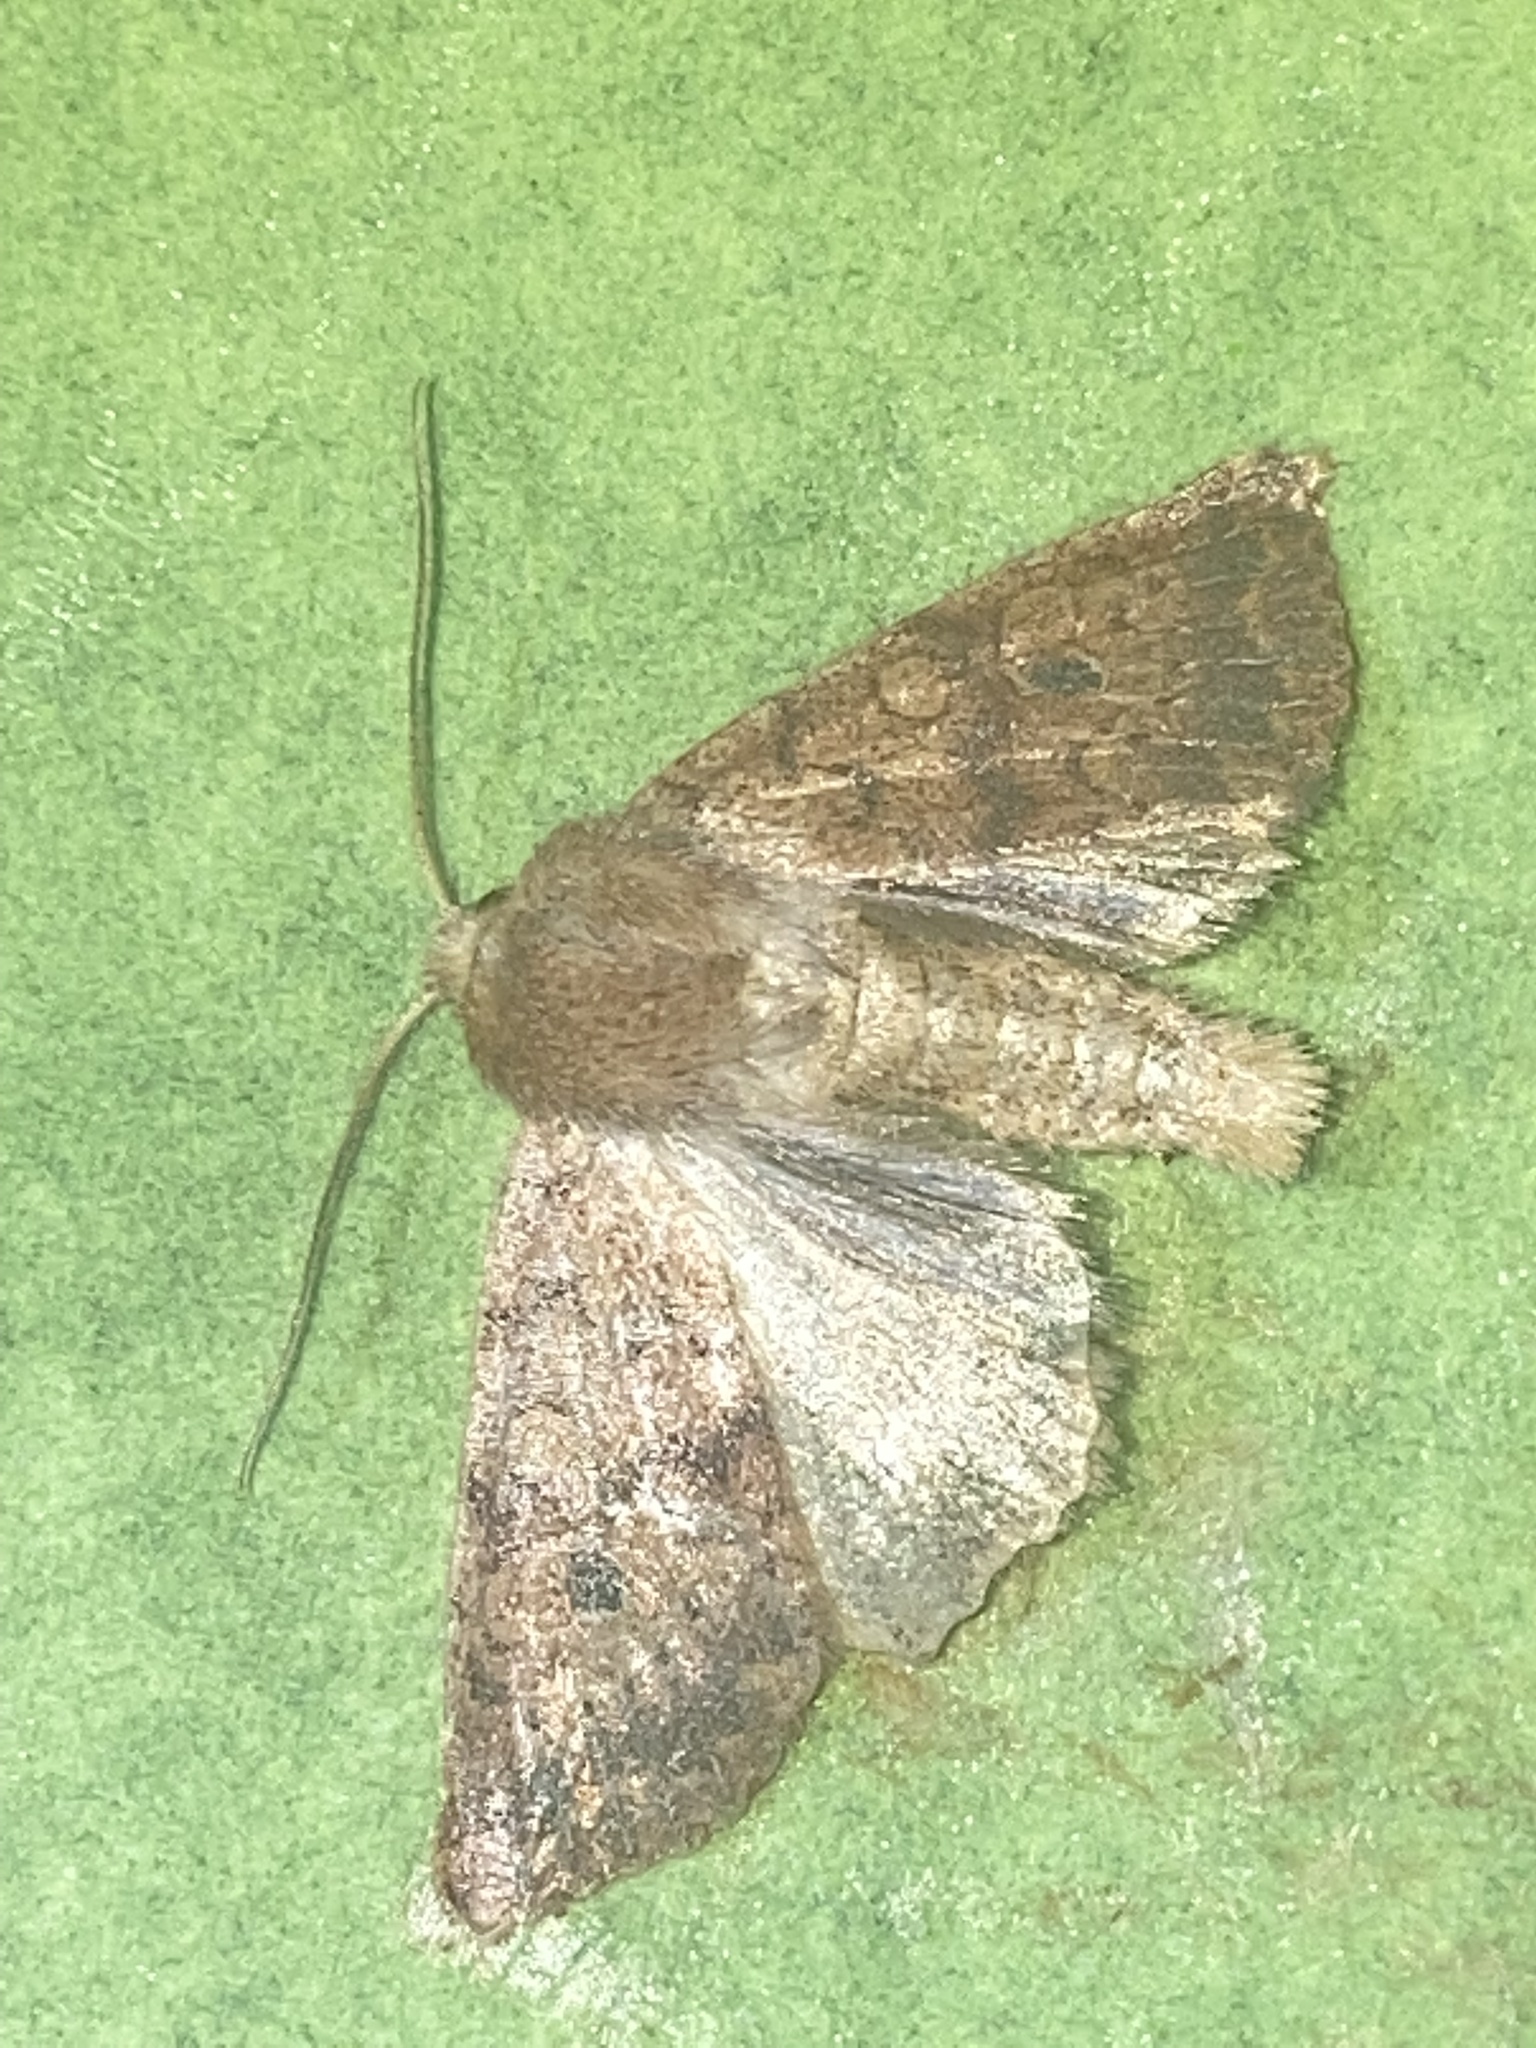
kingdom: Animalia
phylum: Arthropoda
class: Insecta
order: Lepidoptera
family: Noctuidae
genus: Agrochola
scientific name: Agrochola bicolorago
